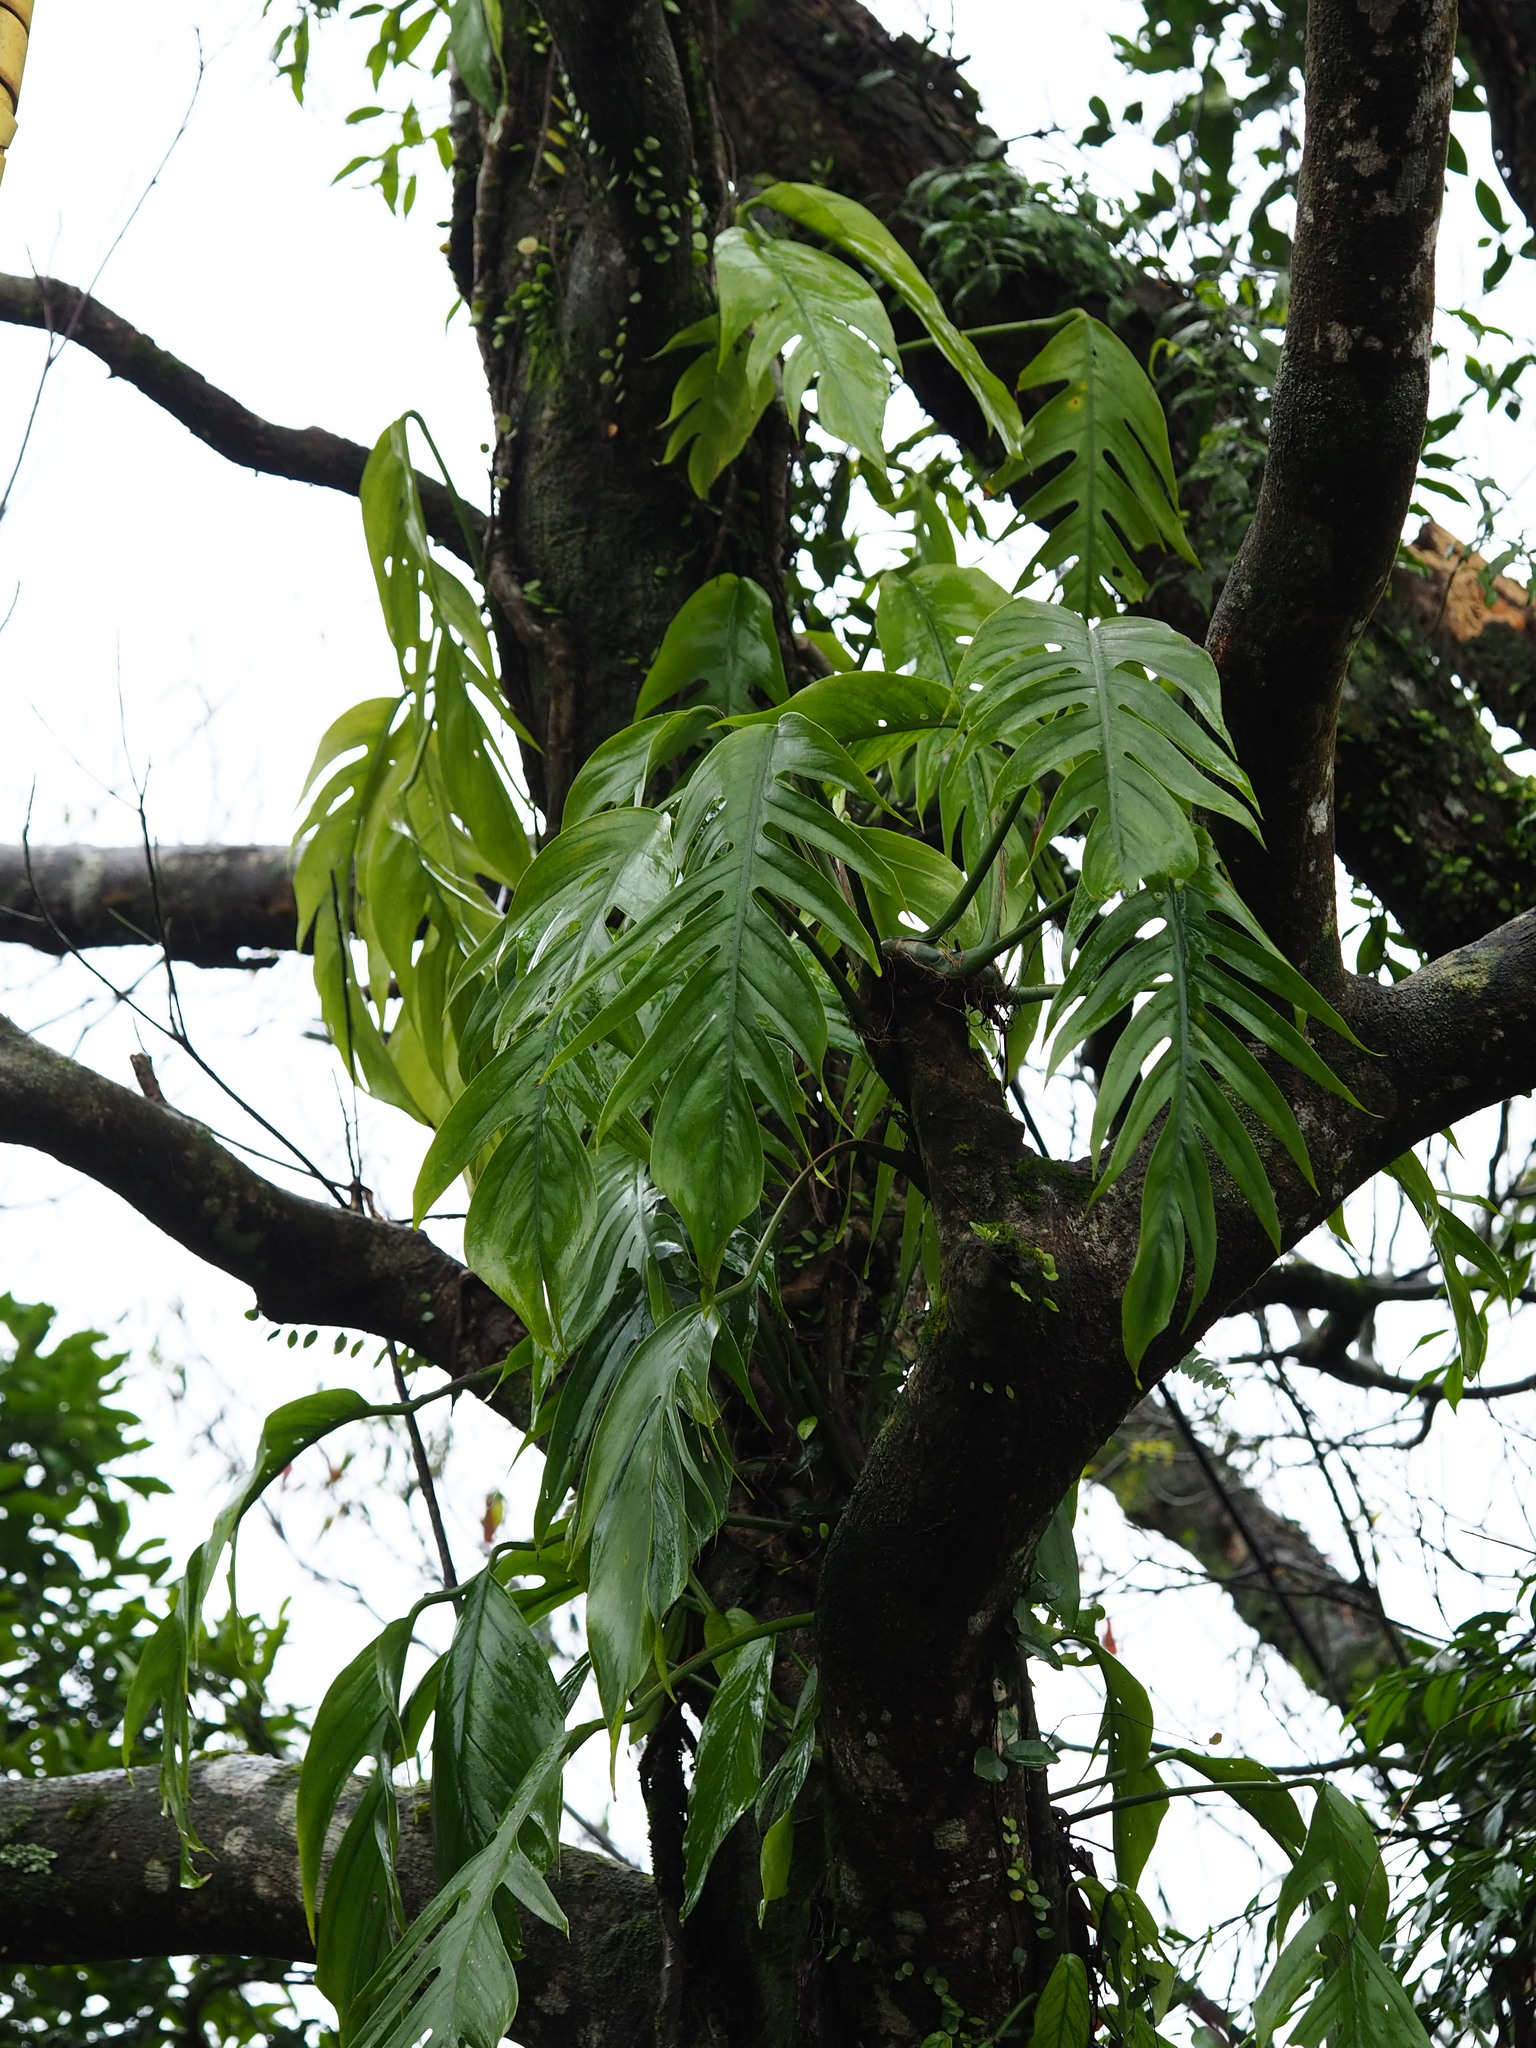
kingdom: Plantae
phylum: Tracheophyta
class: Liliopsida
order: Alismatales
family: Araceae
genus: Epipremnum
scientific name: Epipremnum pinnatum
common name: Centipede tongavine
